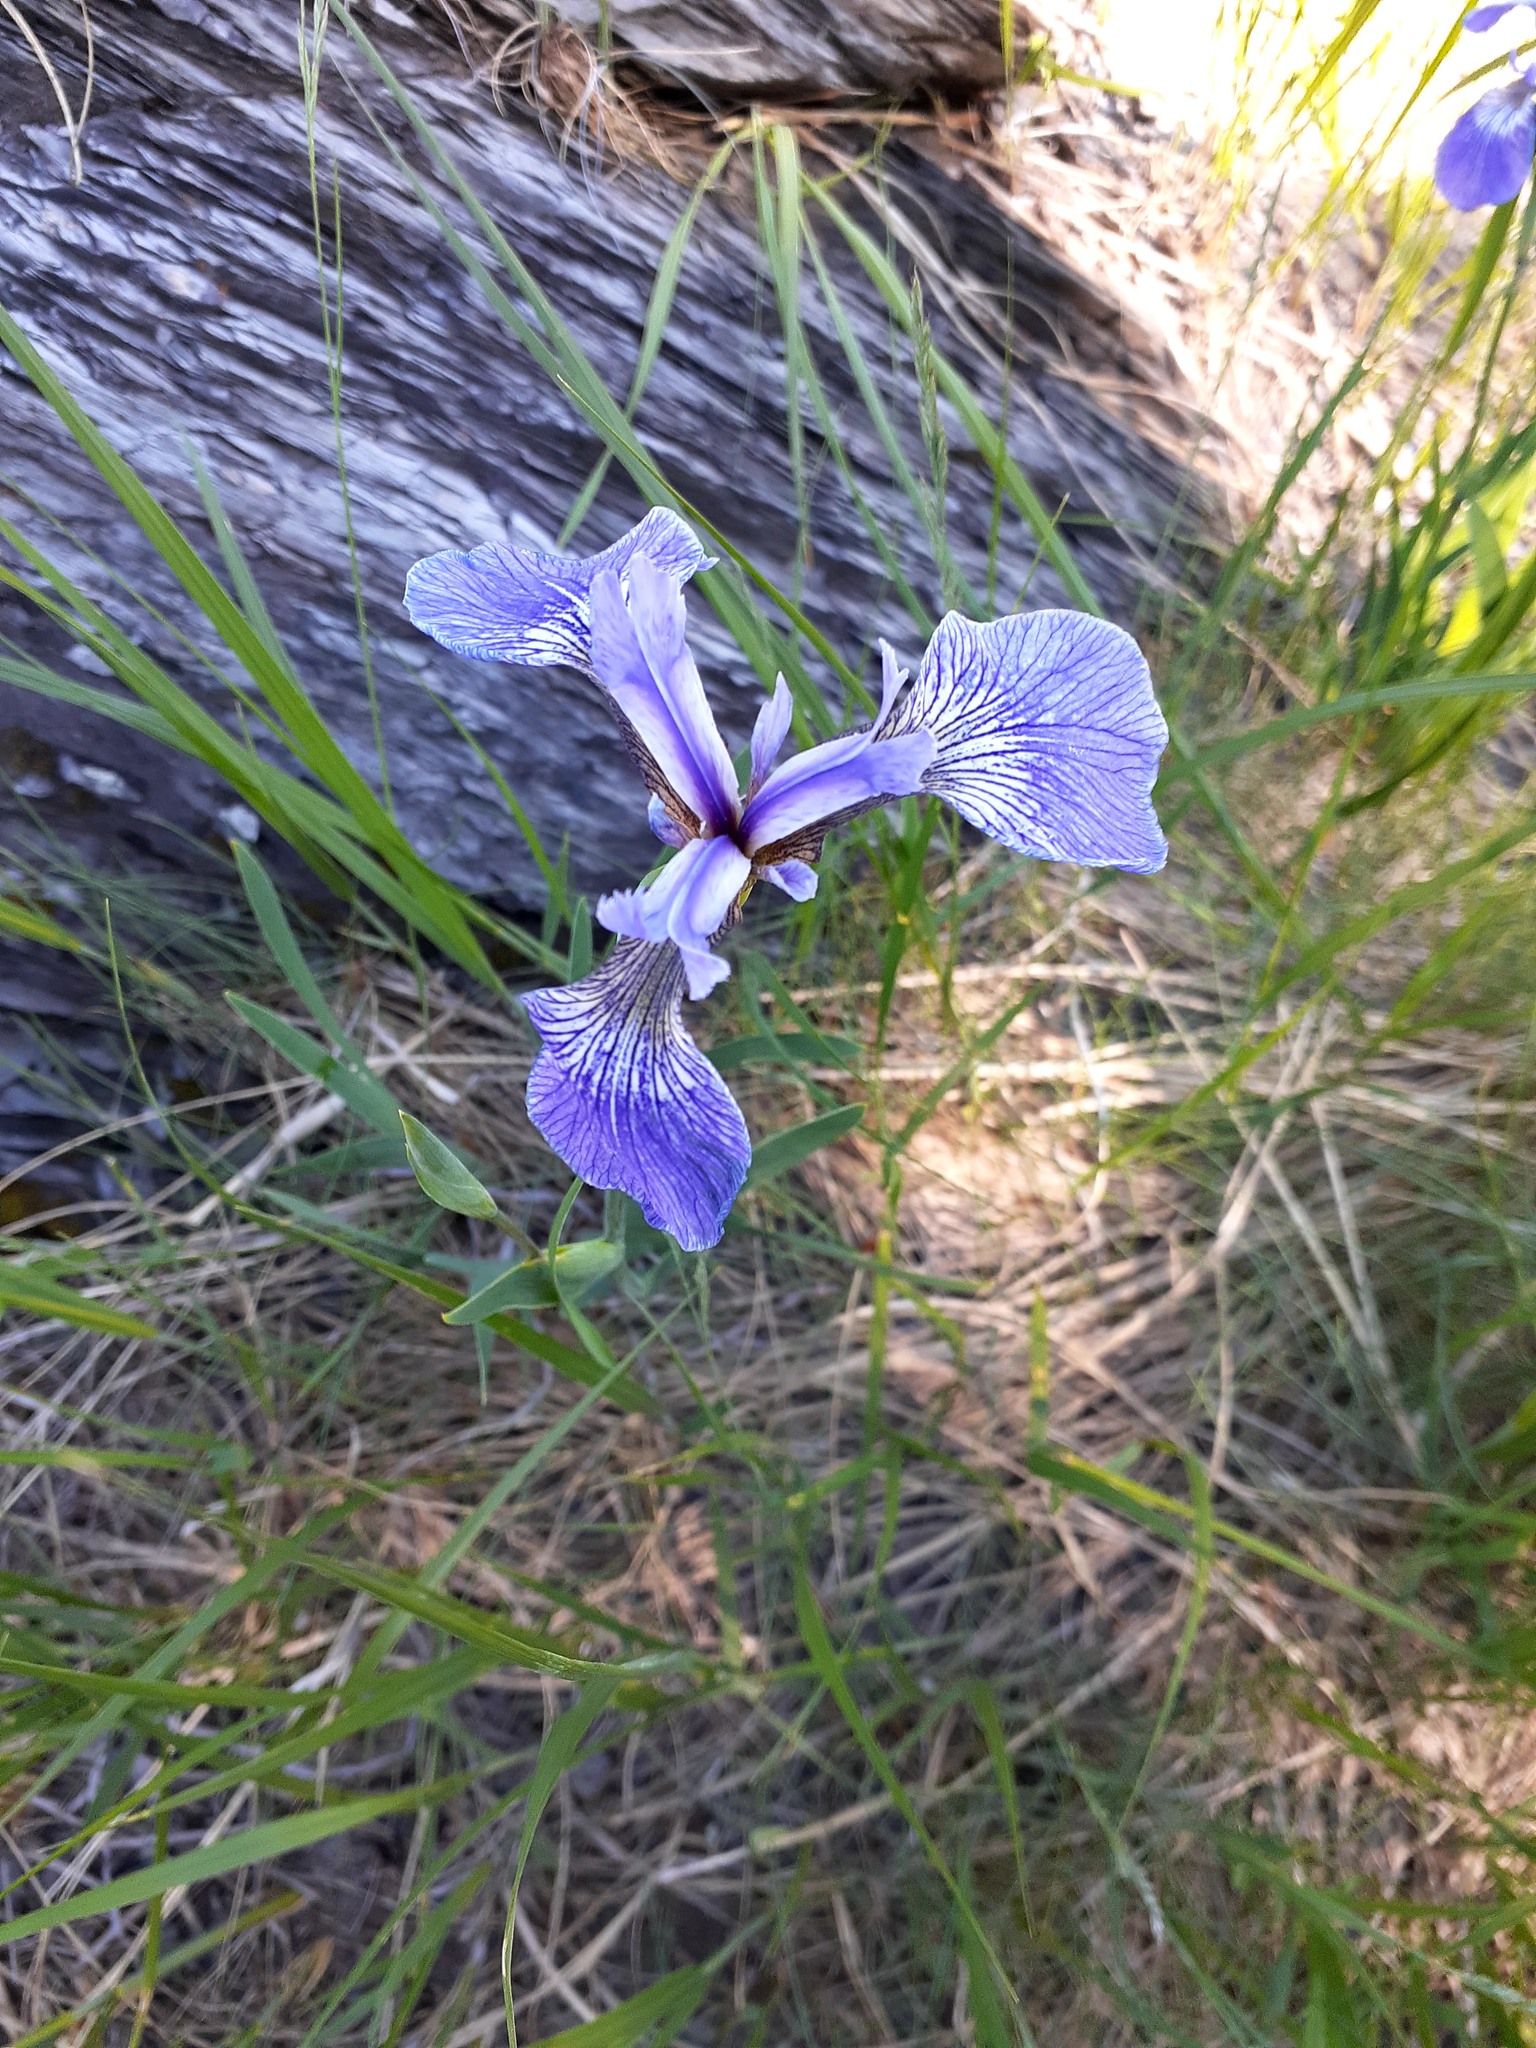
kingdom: Plantae
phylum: Tracheophyta
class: Liliopsida
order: Asparagales
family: Iridaceae
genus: Iris
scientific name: Iris hookeri
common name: Canada beach-head iris
